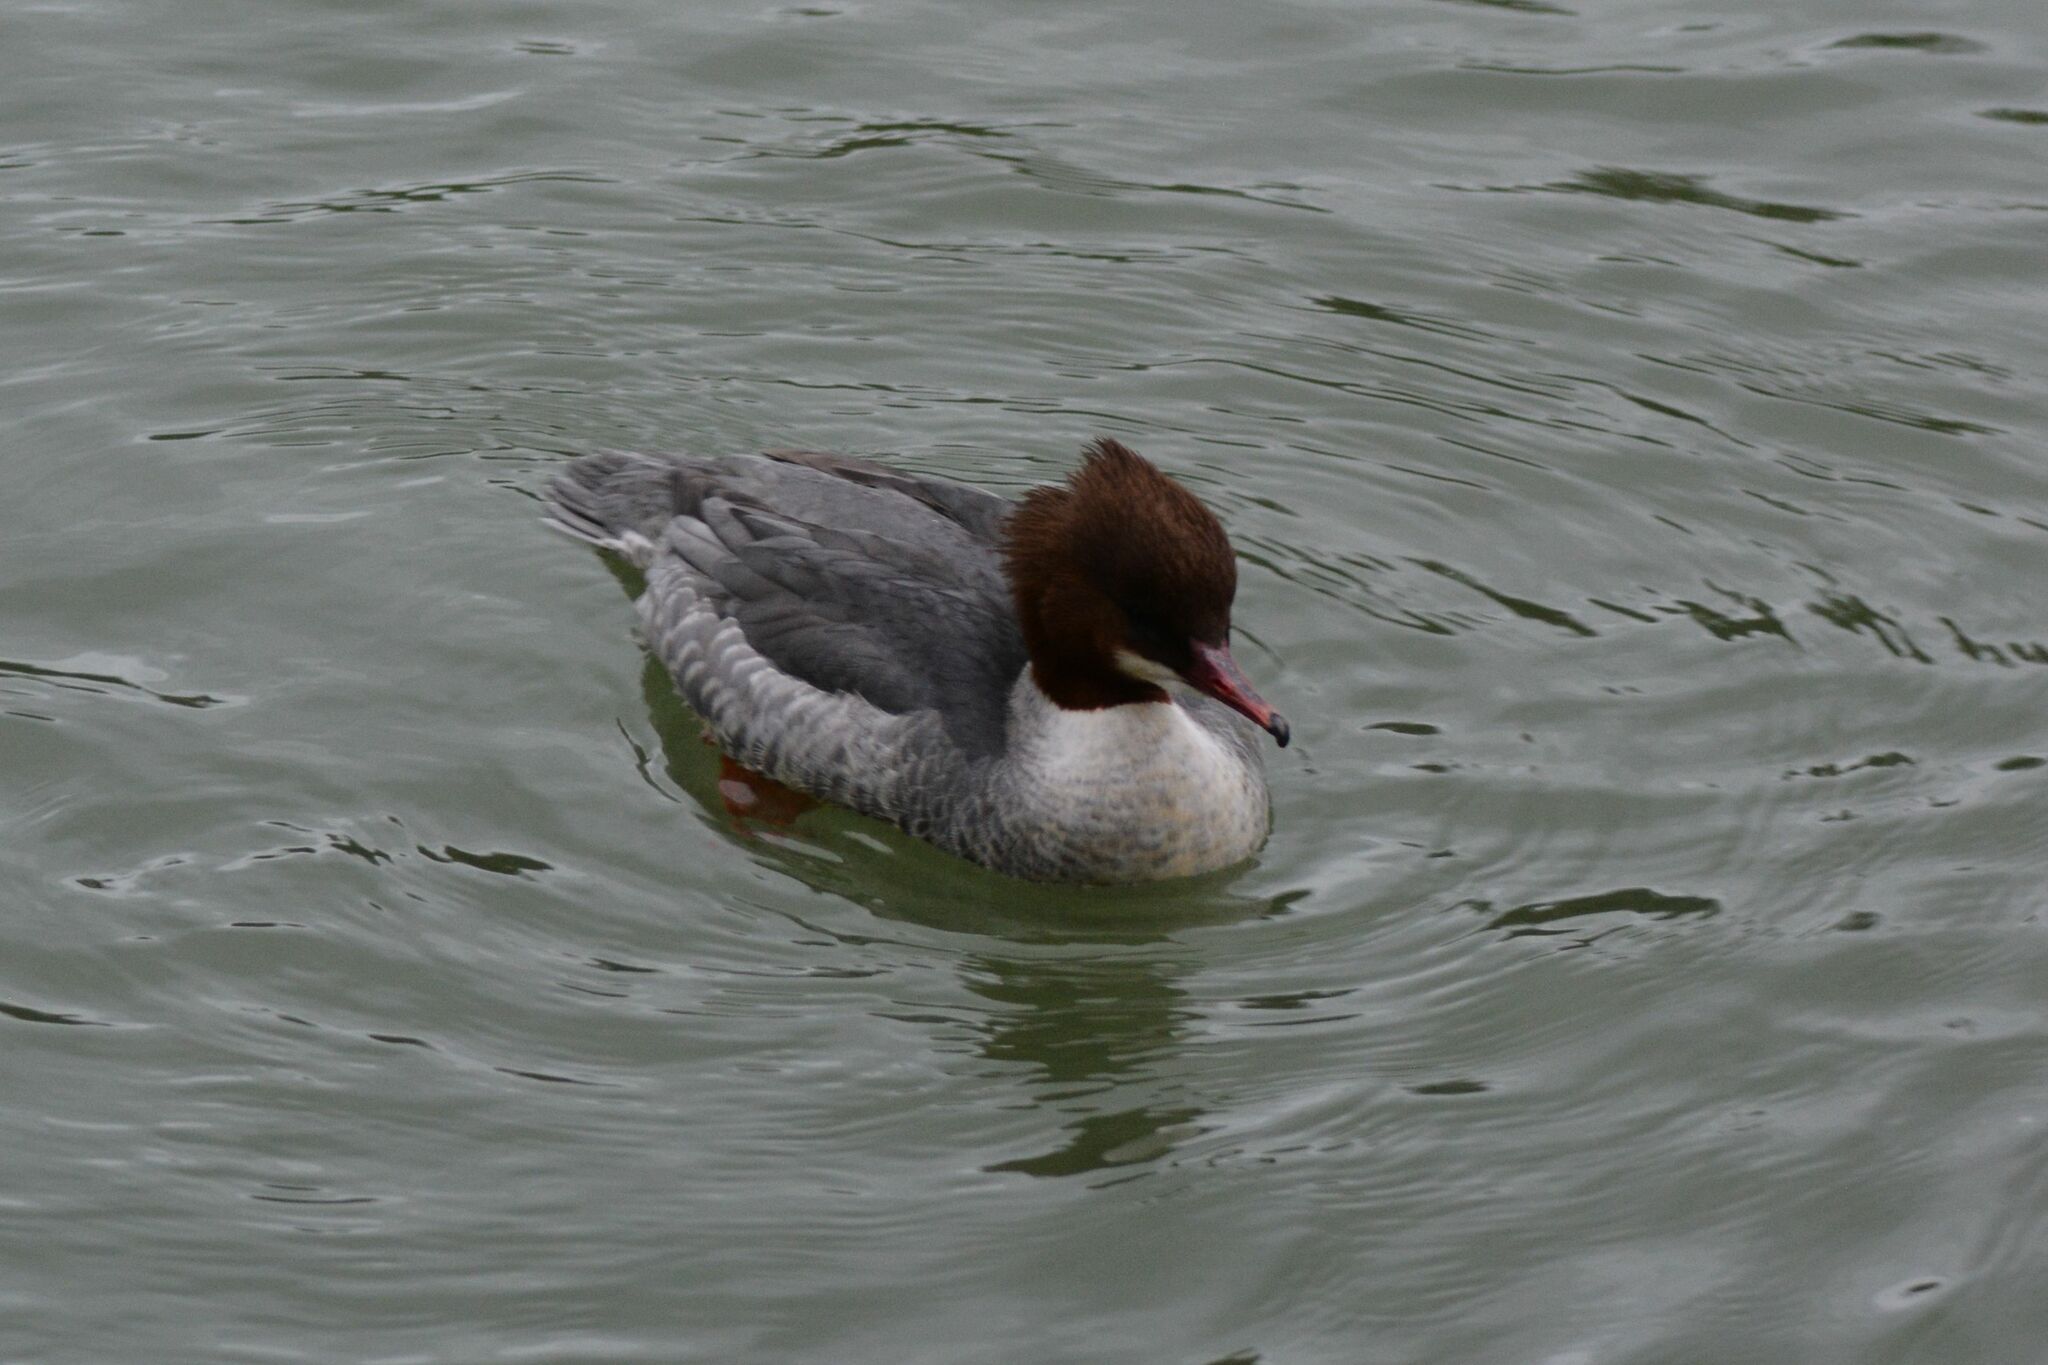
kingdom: Animalia
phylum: Chordata
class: Aves
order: Anseriformes
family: Anatidae
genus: Mergus
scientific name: Mergus merganser
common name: Common merganser
